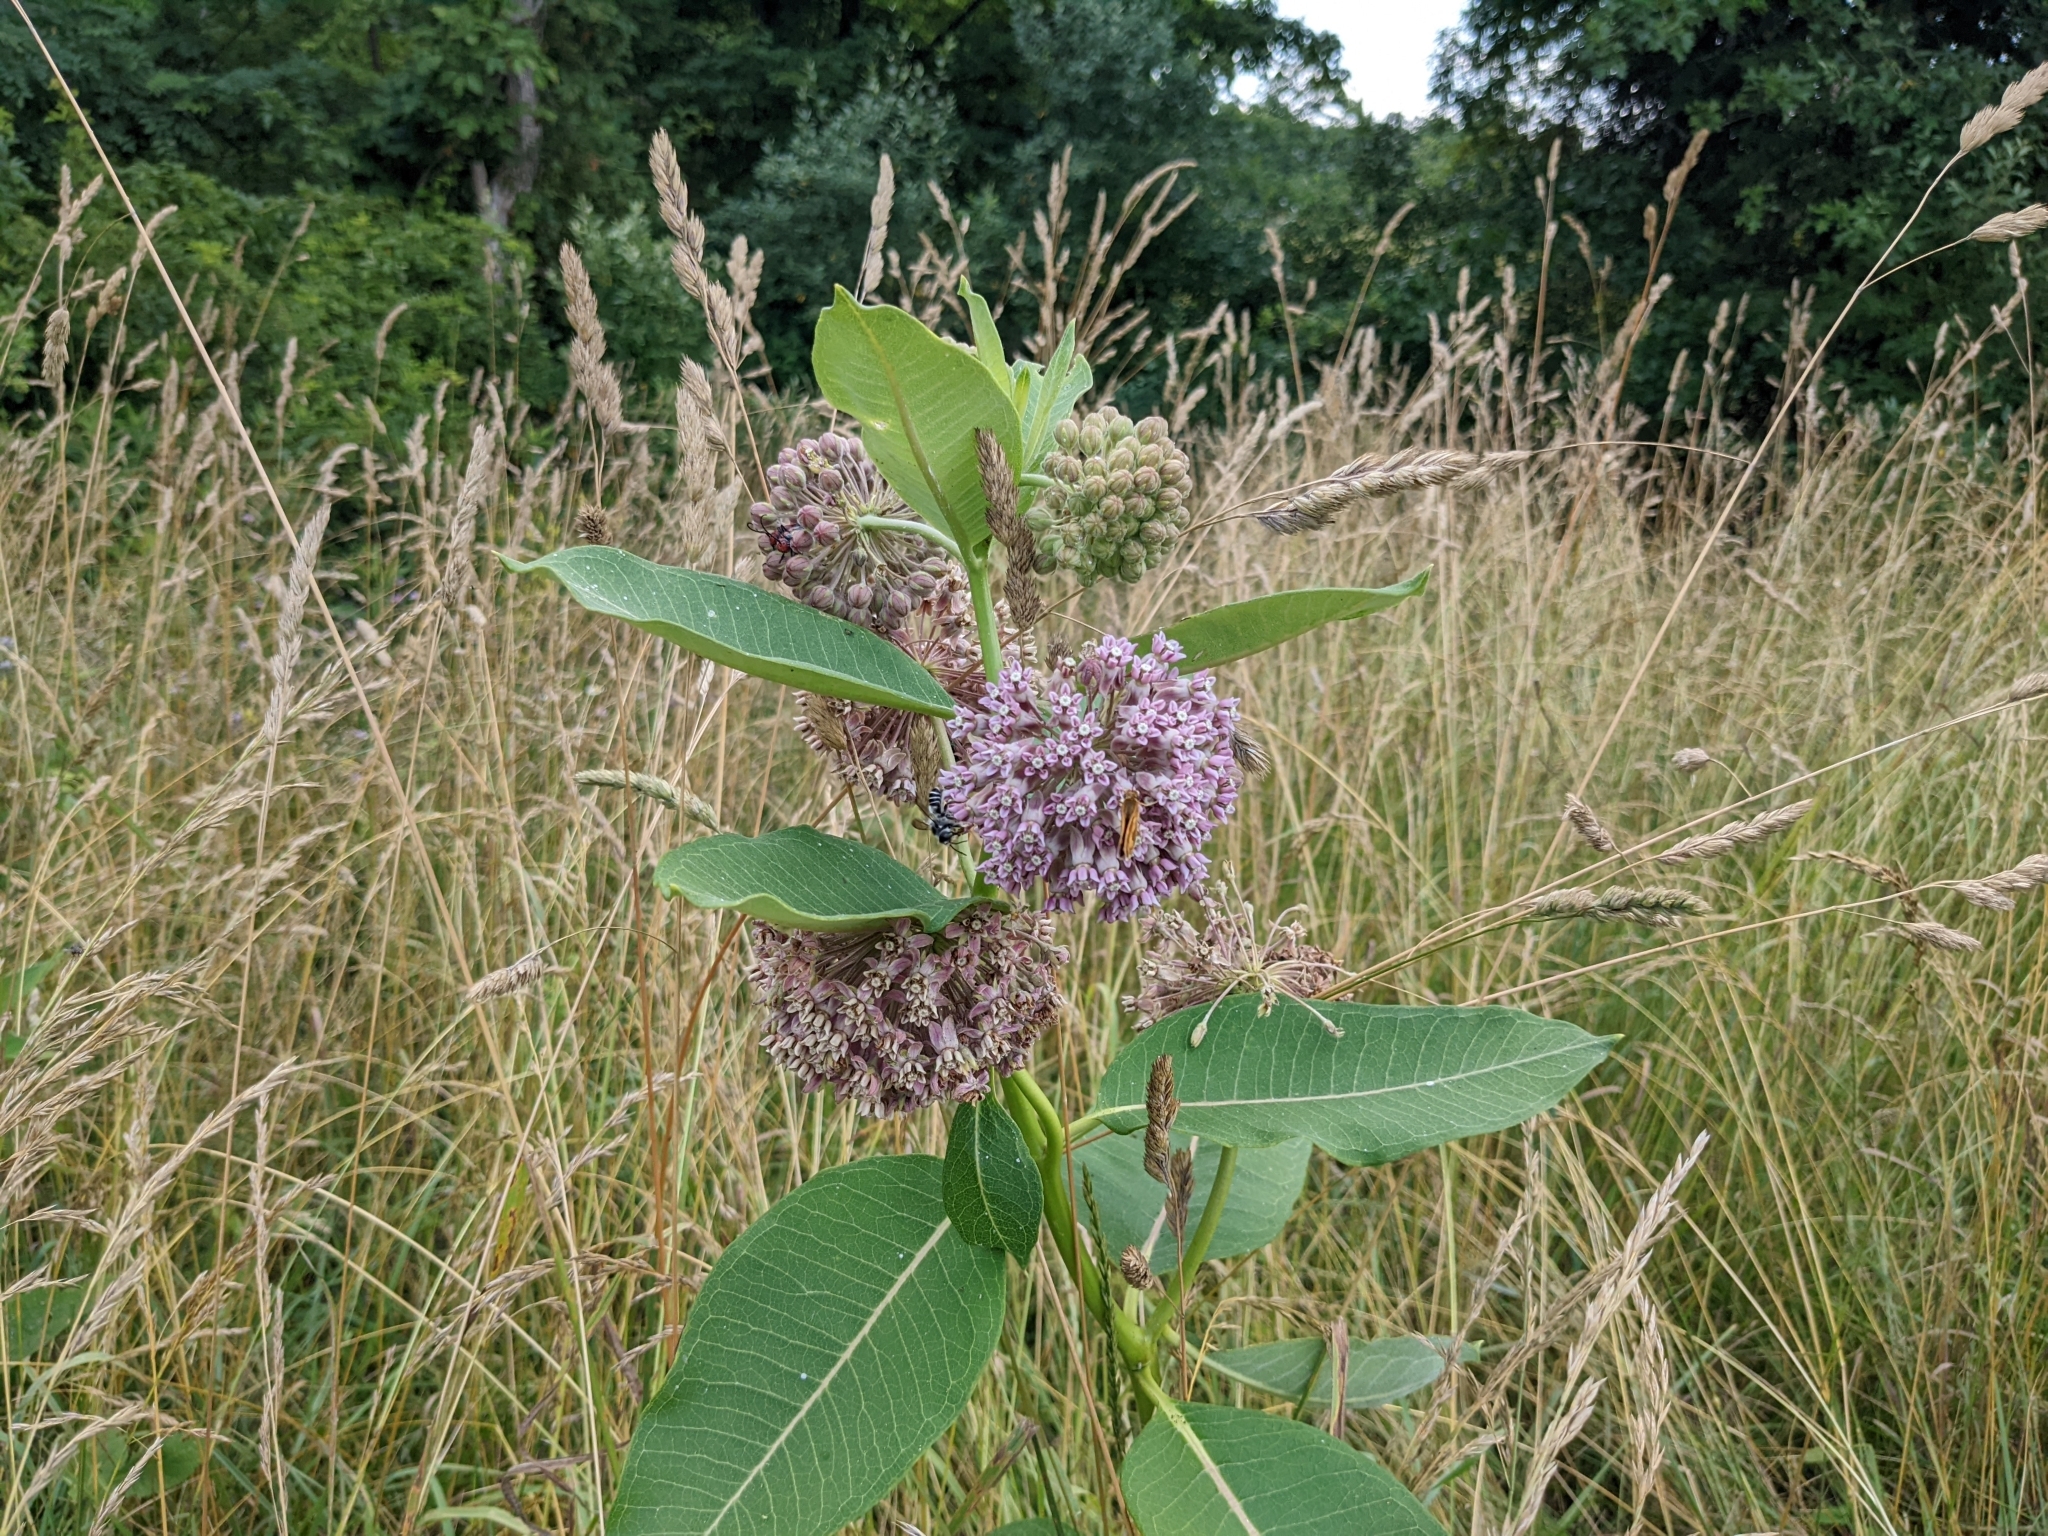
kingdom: Plantae
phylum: Tracheophyta
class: Magnoliopsida
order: Gentianales
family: Apocynaceae
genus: Asclepias
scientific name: Asclepias syriaca
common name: Common milkweed
